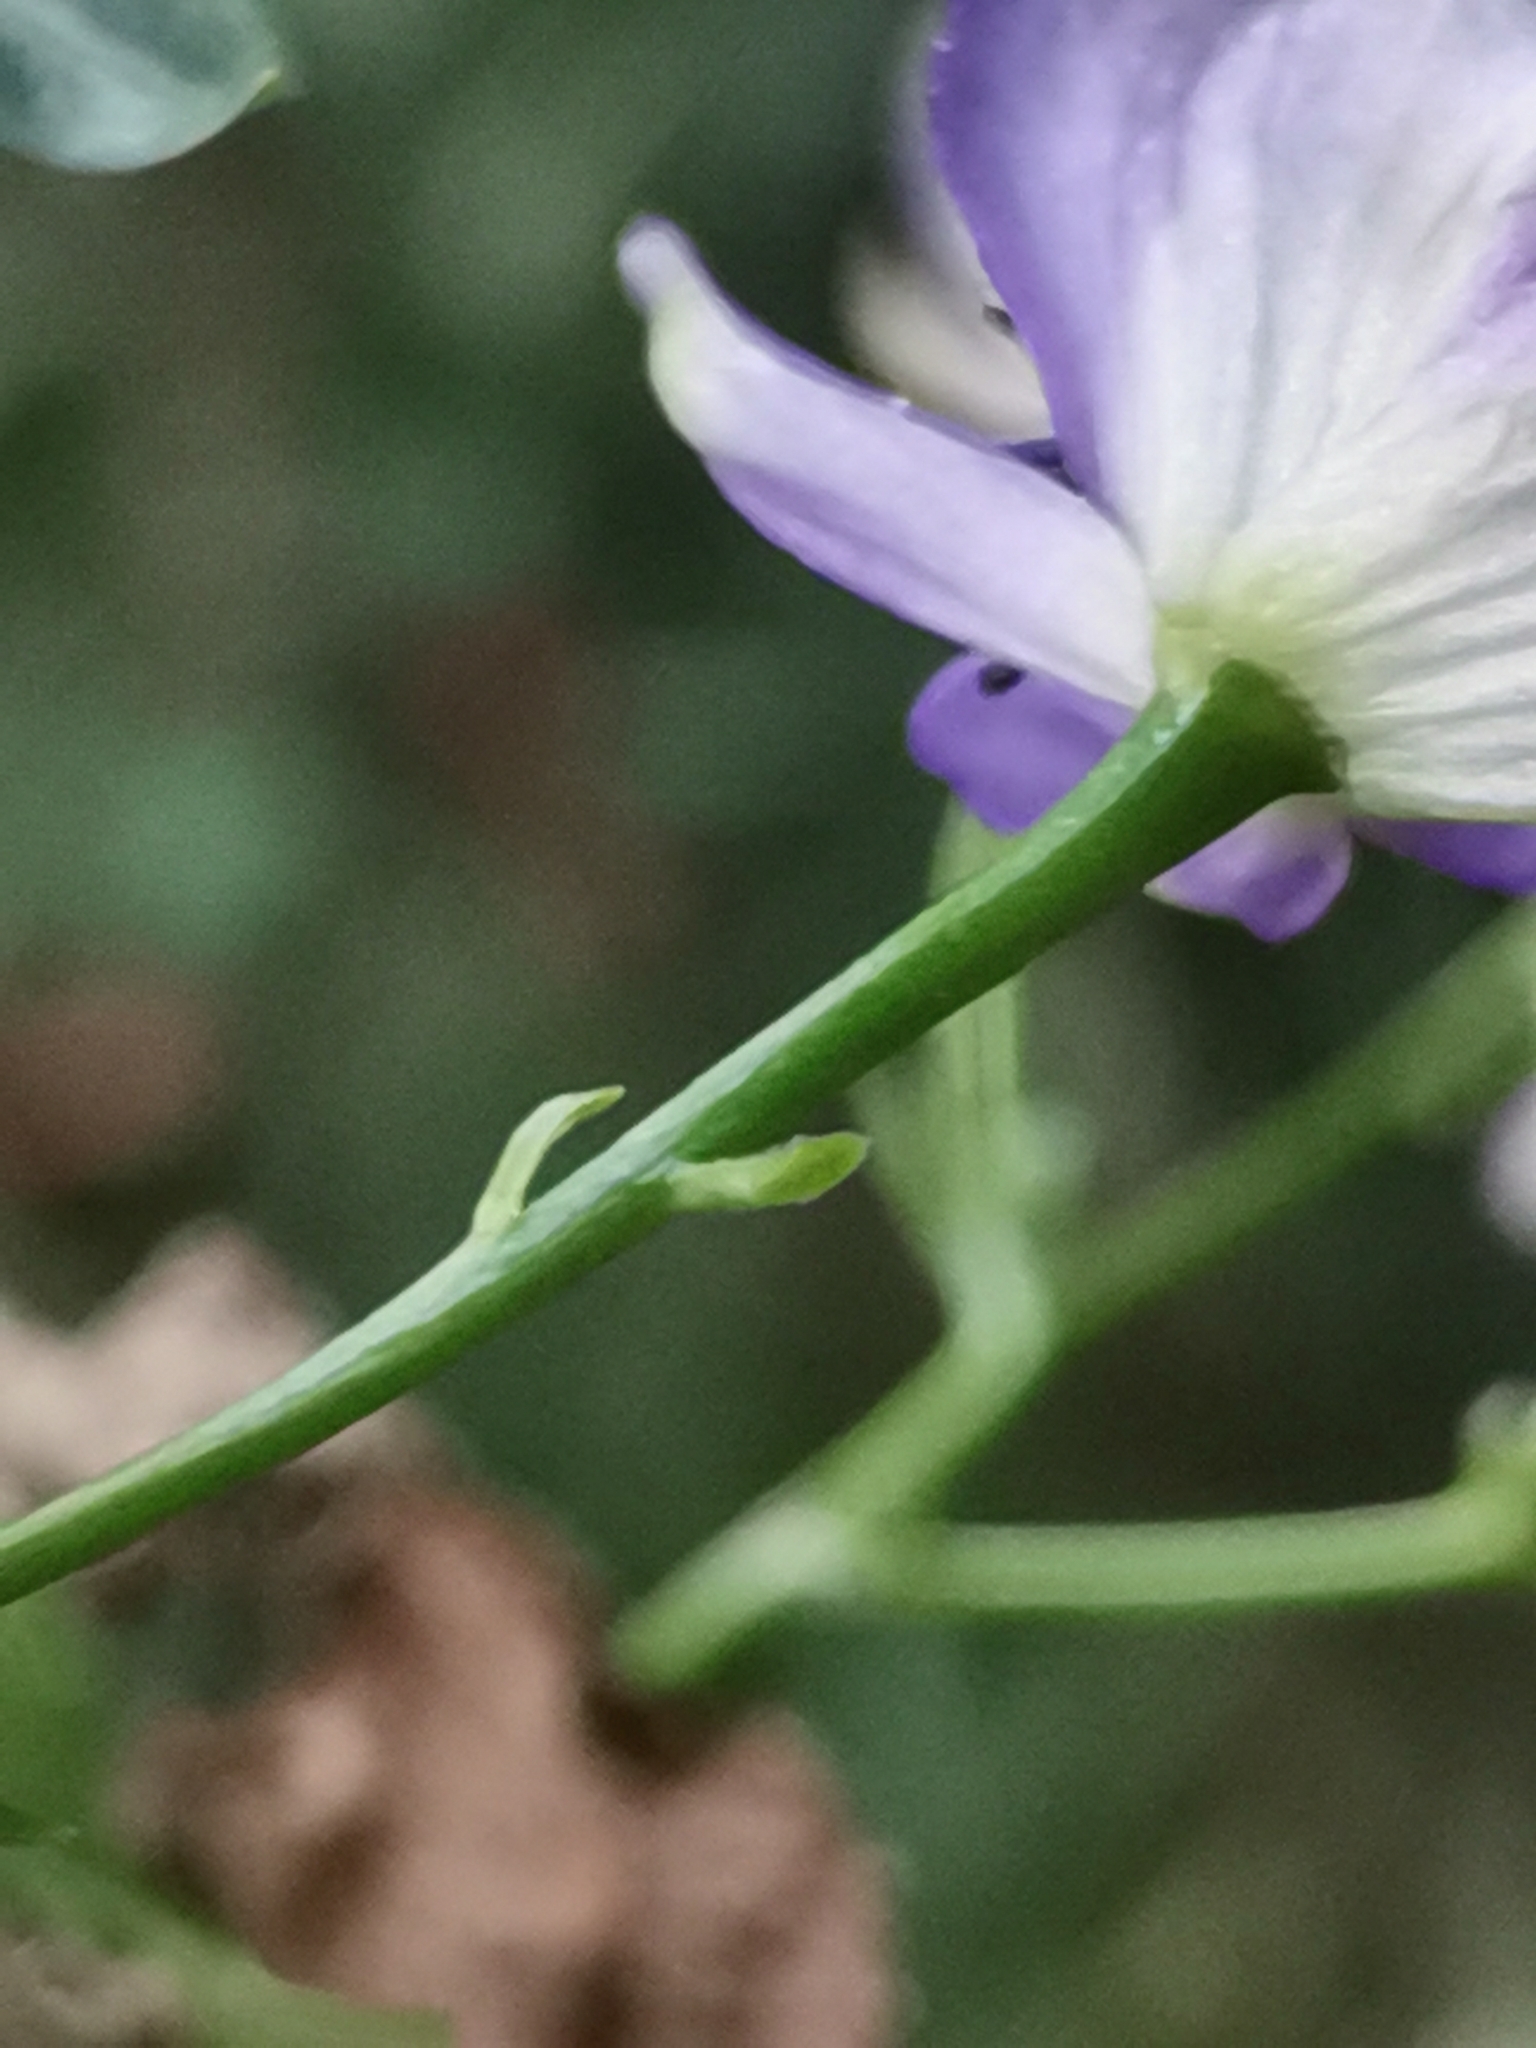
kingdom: Plantae
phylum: Tracheophyta
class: Magnoliopsida
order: Ranunculales
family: Ranunculaceae
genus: Aconitum
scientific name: Aconitum variegatum
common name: Manchurian monkshood
